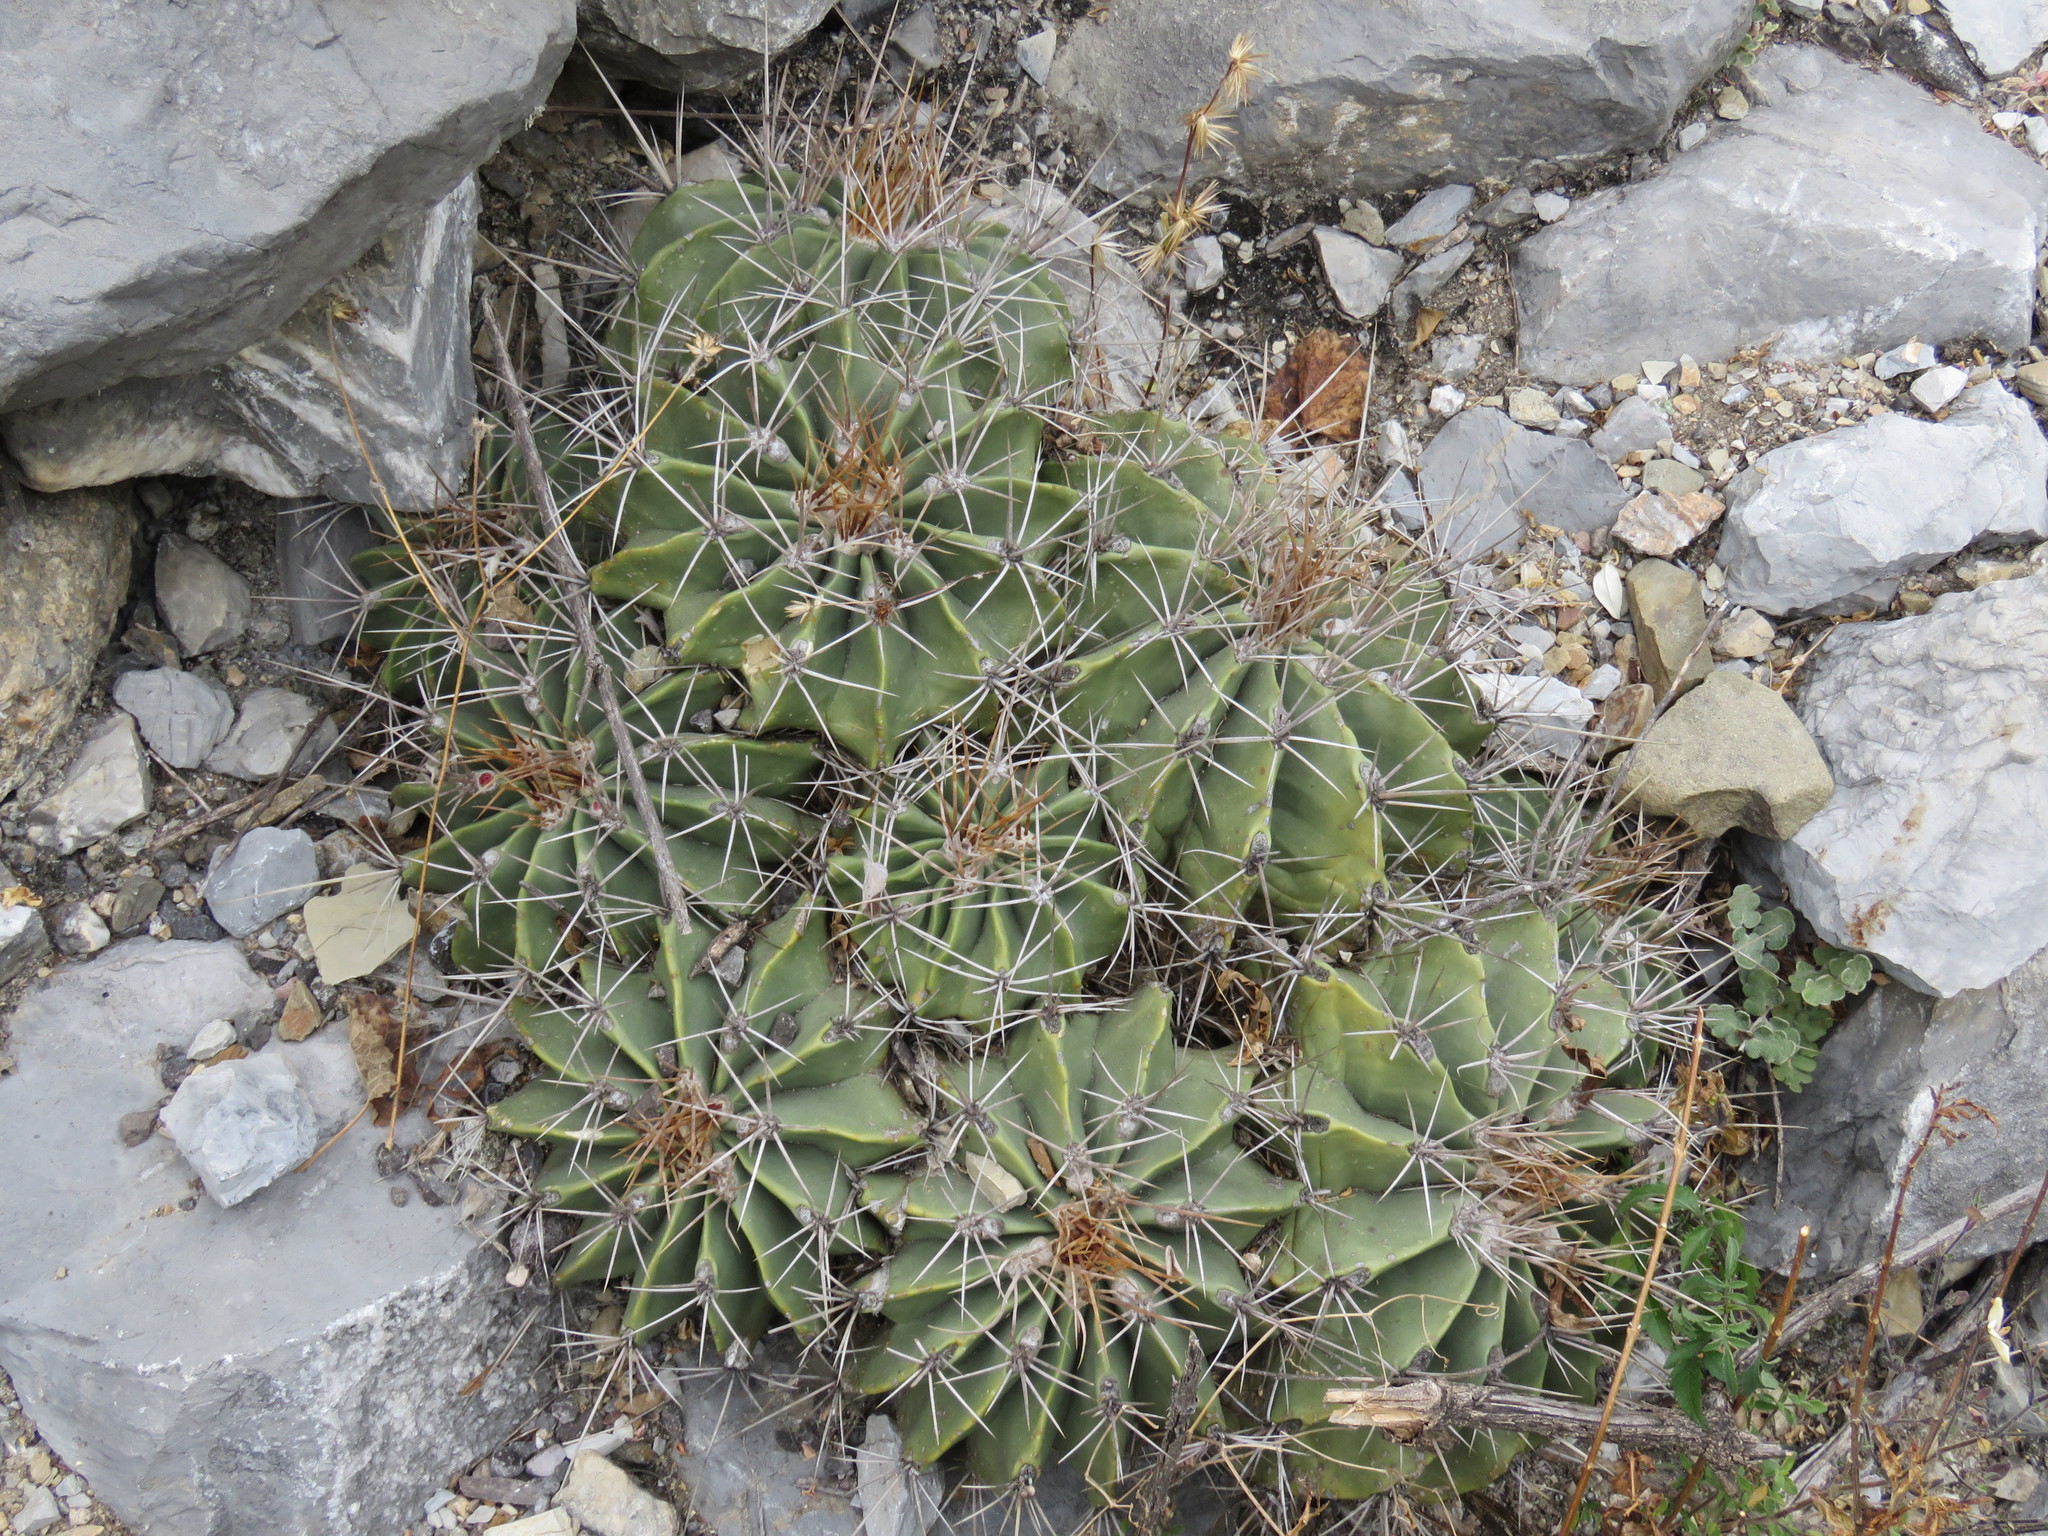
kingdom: Plantae
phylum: Tracheophyta
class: Magnoliopsida
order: Caryophyllales
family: Cactaceae
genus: Parrycactus
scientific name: Parrycactus echidne
